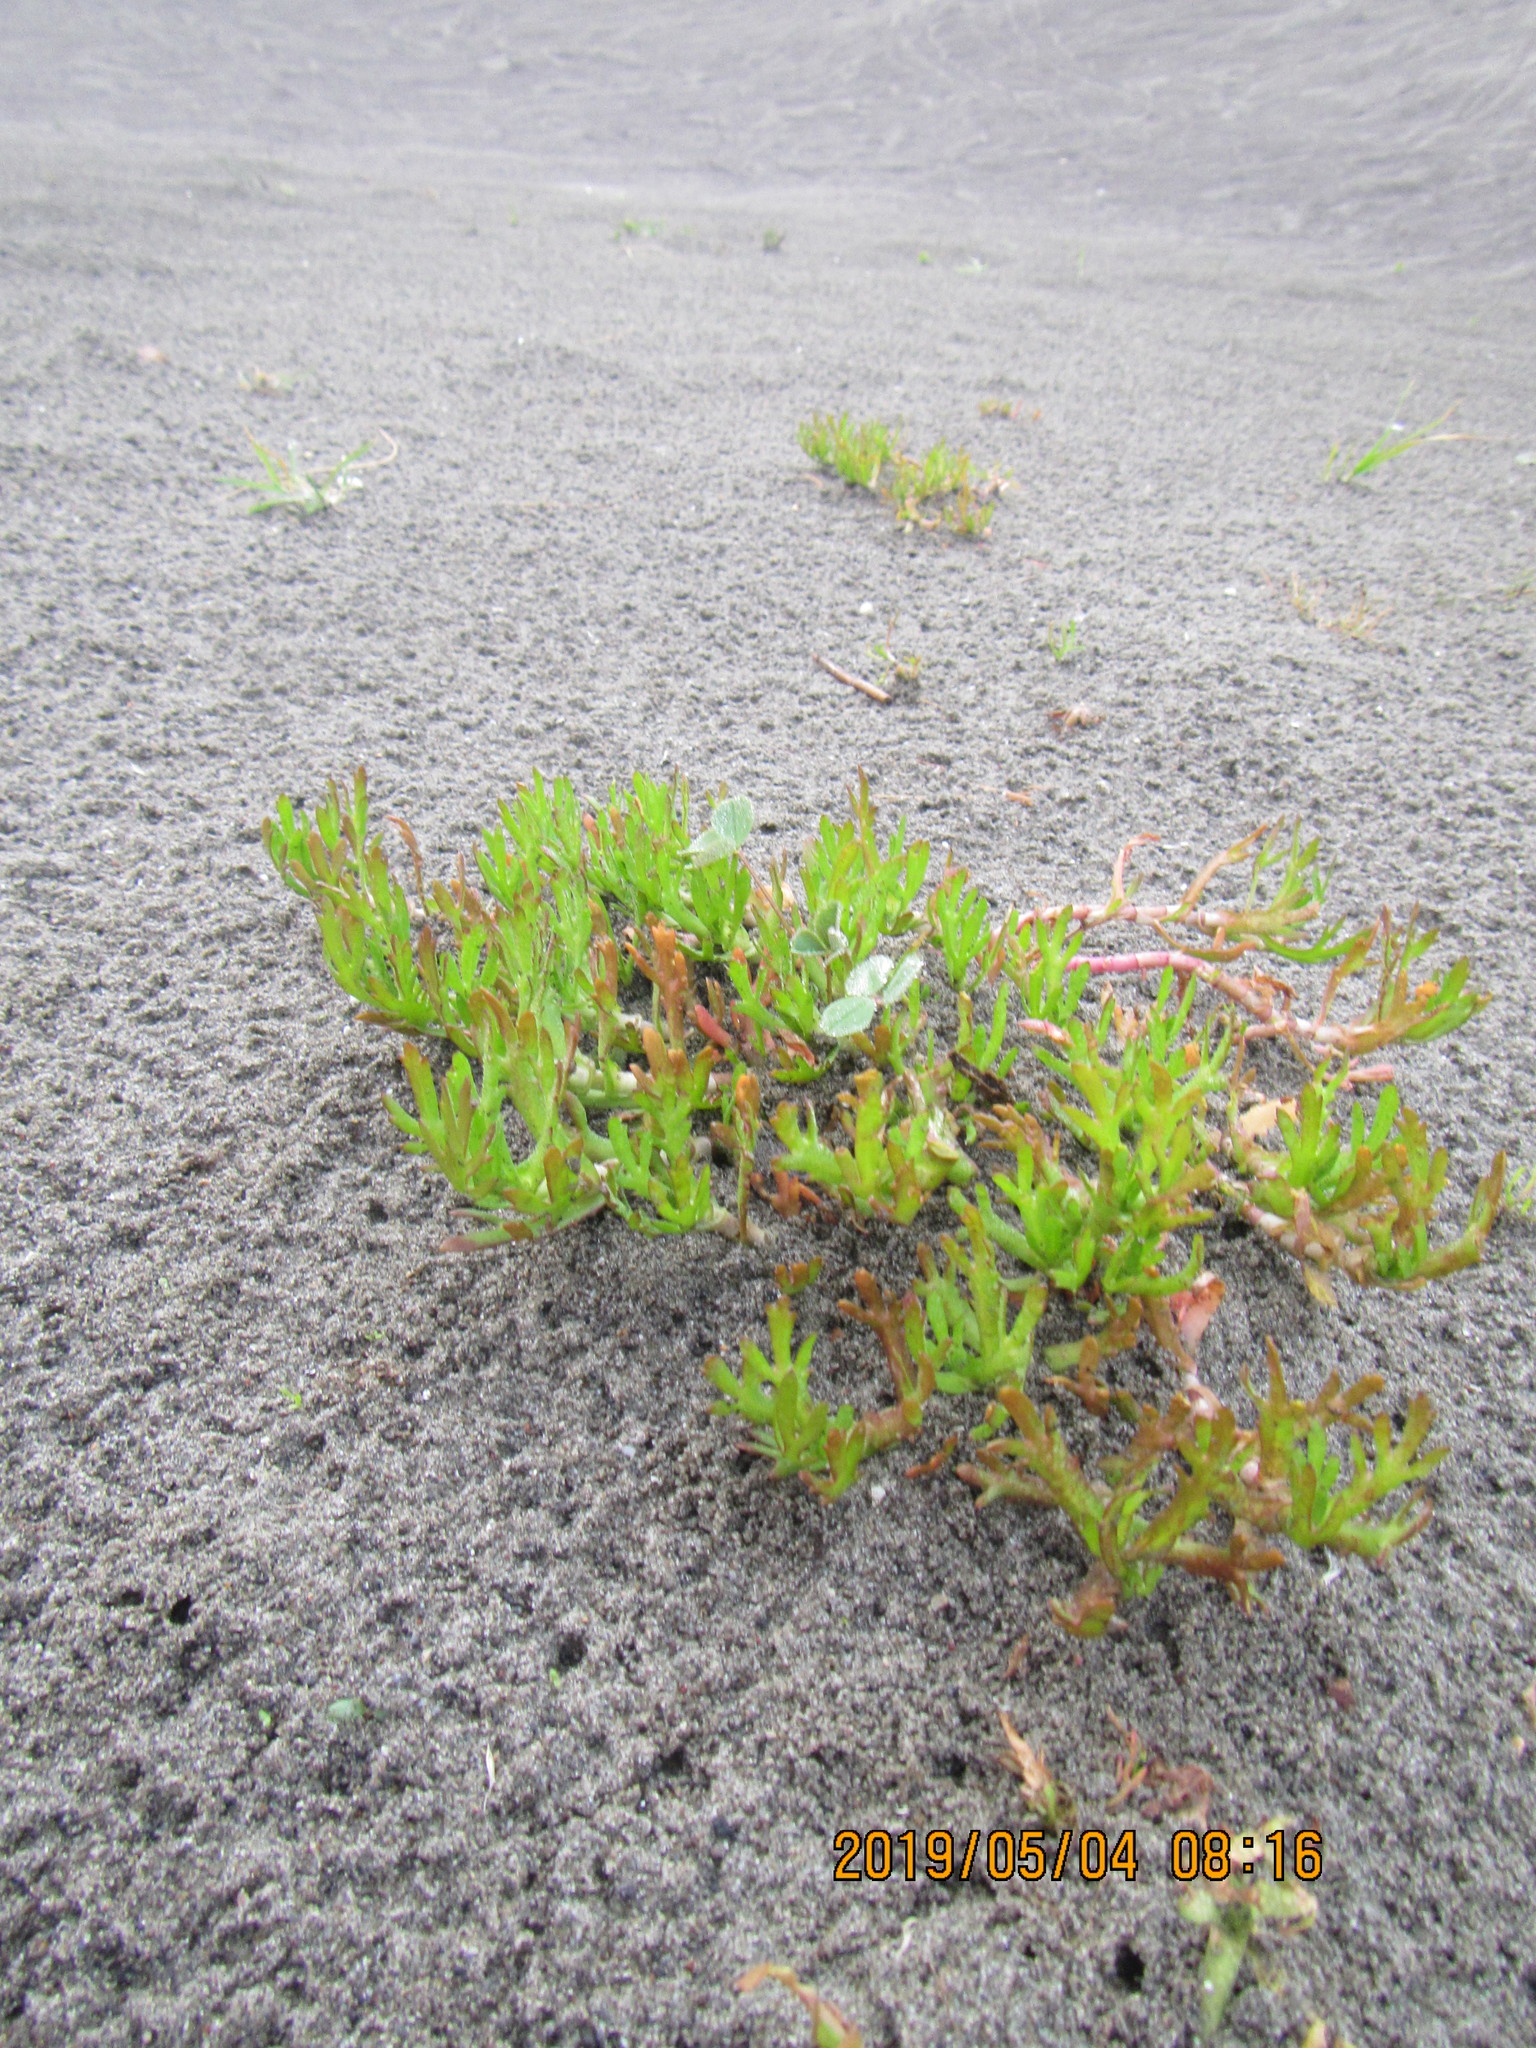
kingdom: Plantae
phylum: Tracheophyta
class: Magnoliopsida
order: Asterales
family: Asteraceae
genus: Cotula
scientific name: Cotula coronopifolia
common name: Buttonweed
